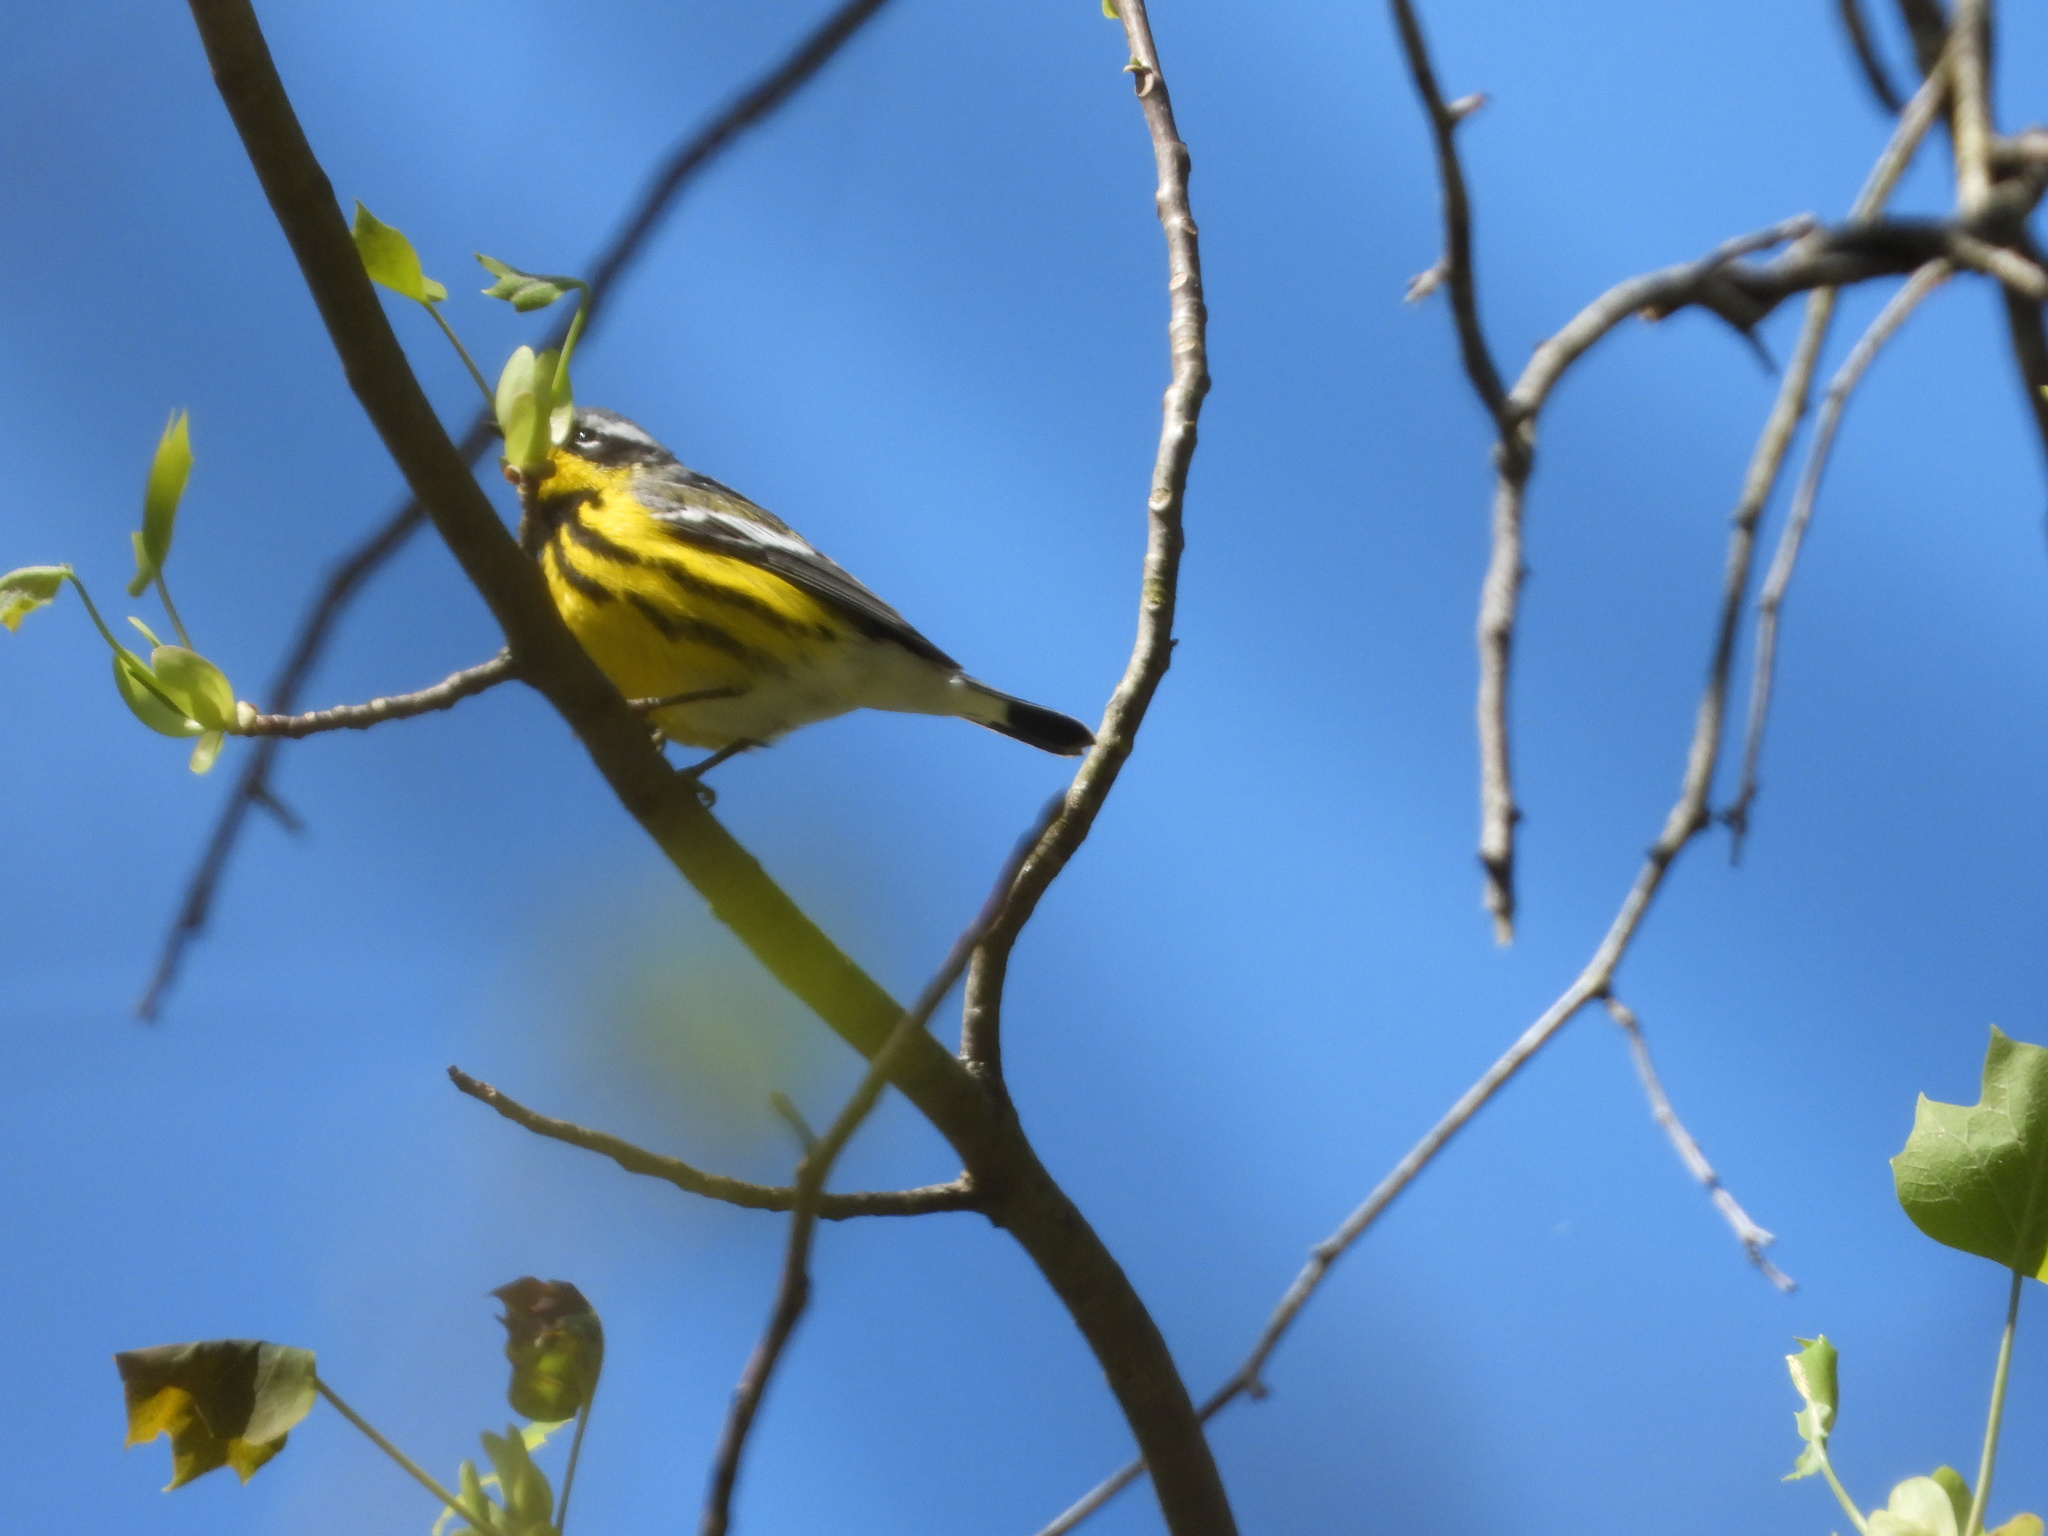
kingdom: Animalia
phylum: Chordata
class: Aves
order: Passeriformes
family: Parulidae
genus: Setophaga
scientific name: Setophaga magnolia
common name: Magnolia warbler
